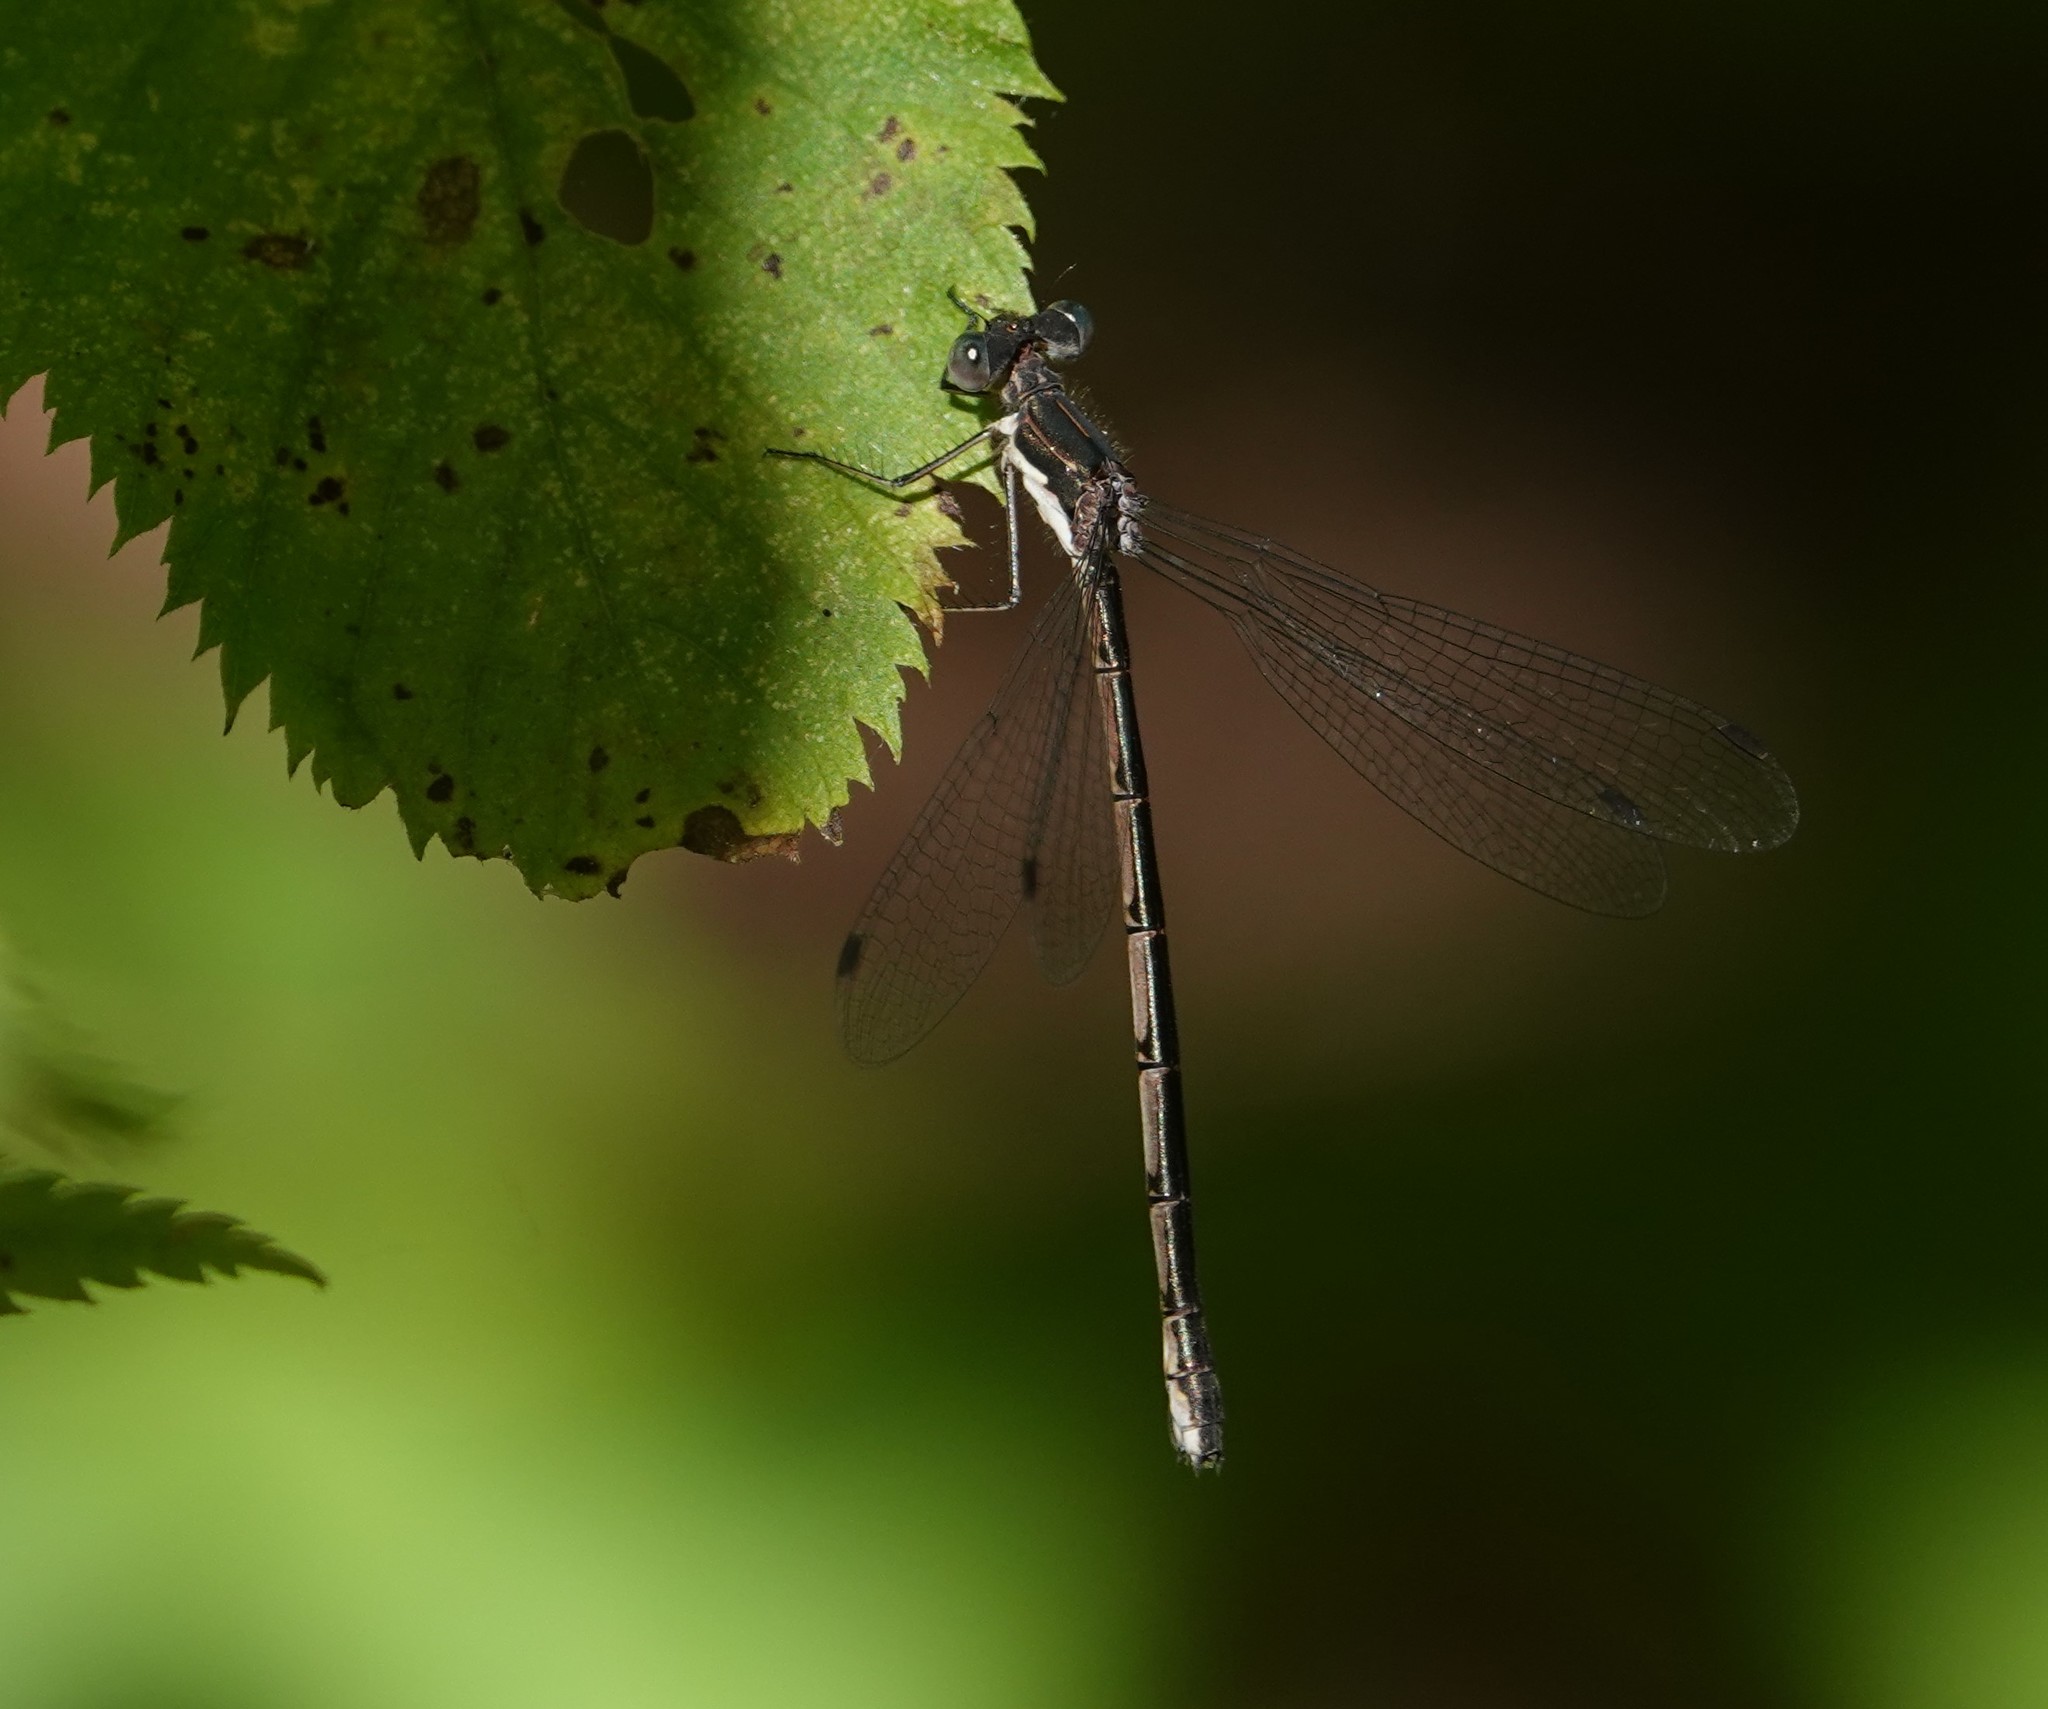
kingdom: Animalia
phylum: Arthropoda
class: Insecta
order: Odonata
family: Lestidae
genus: Lestes
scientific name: Lestes congener
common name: Spotted spreadwing
